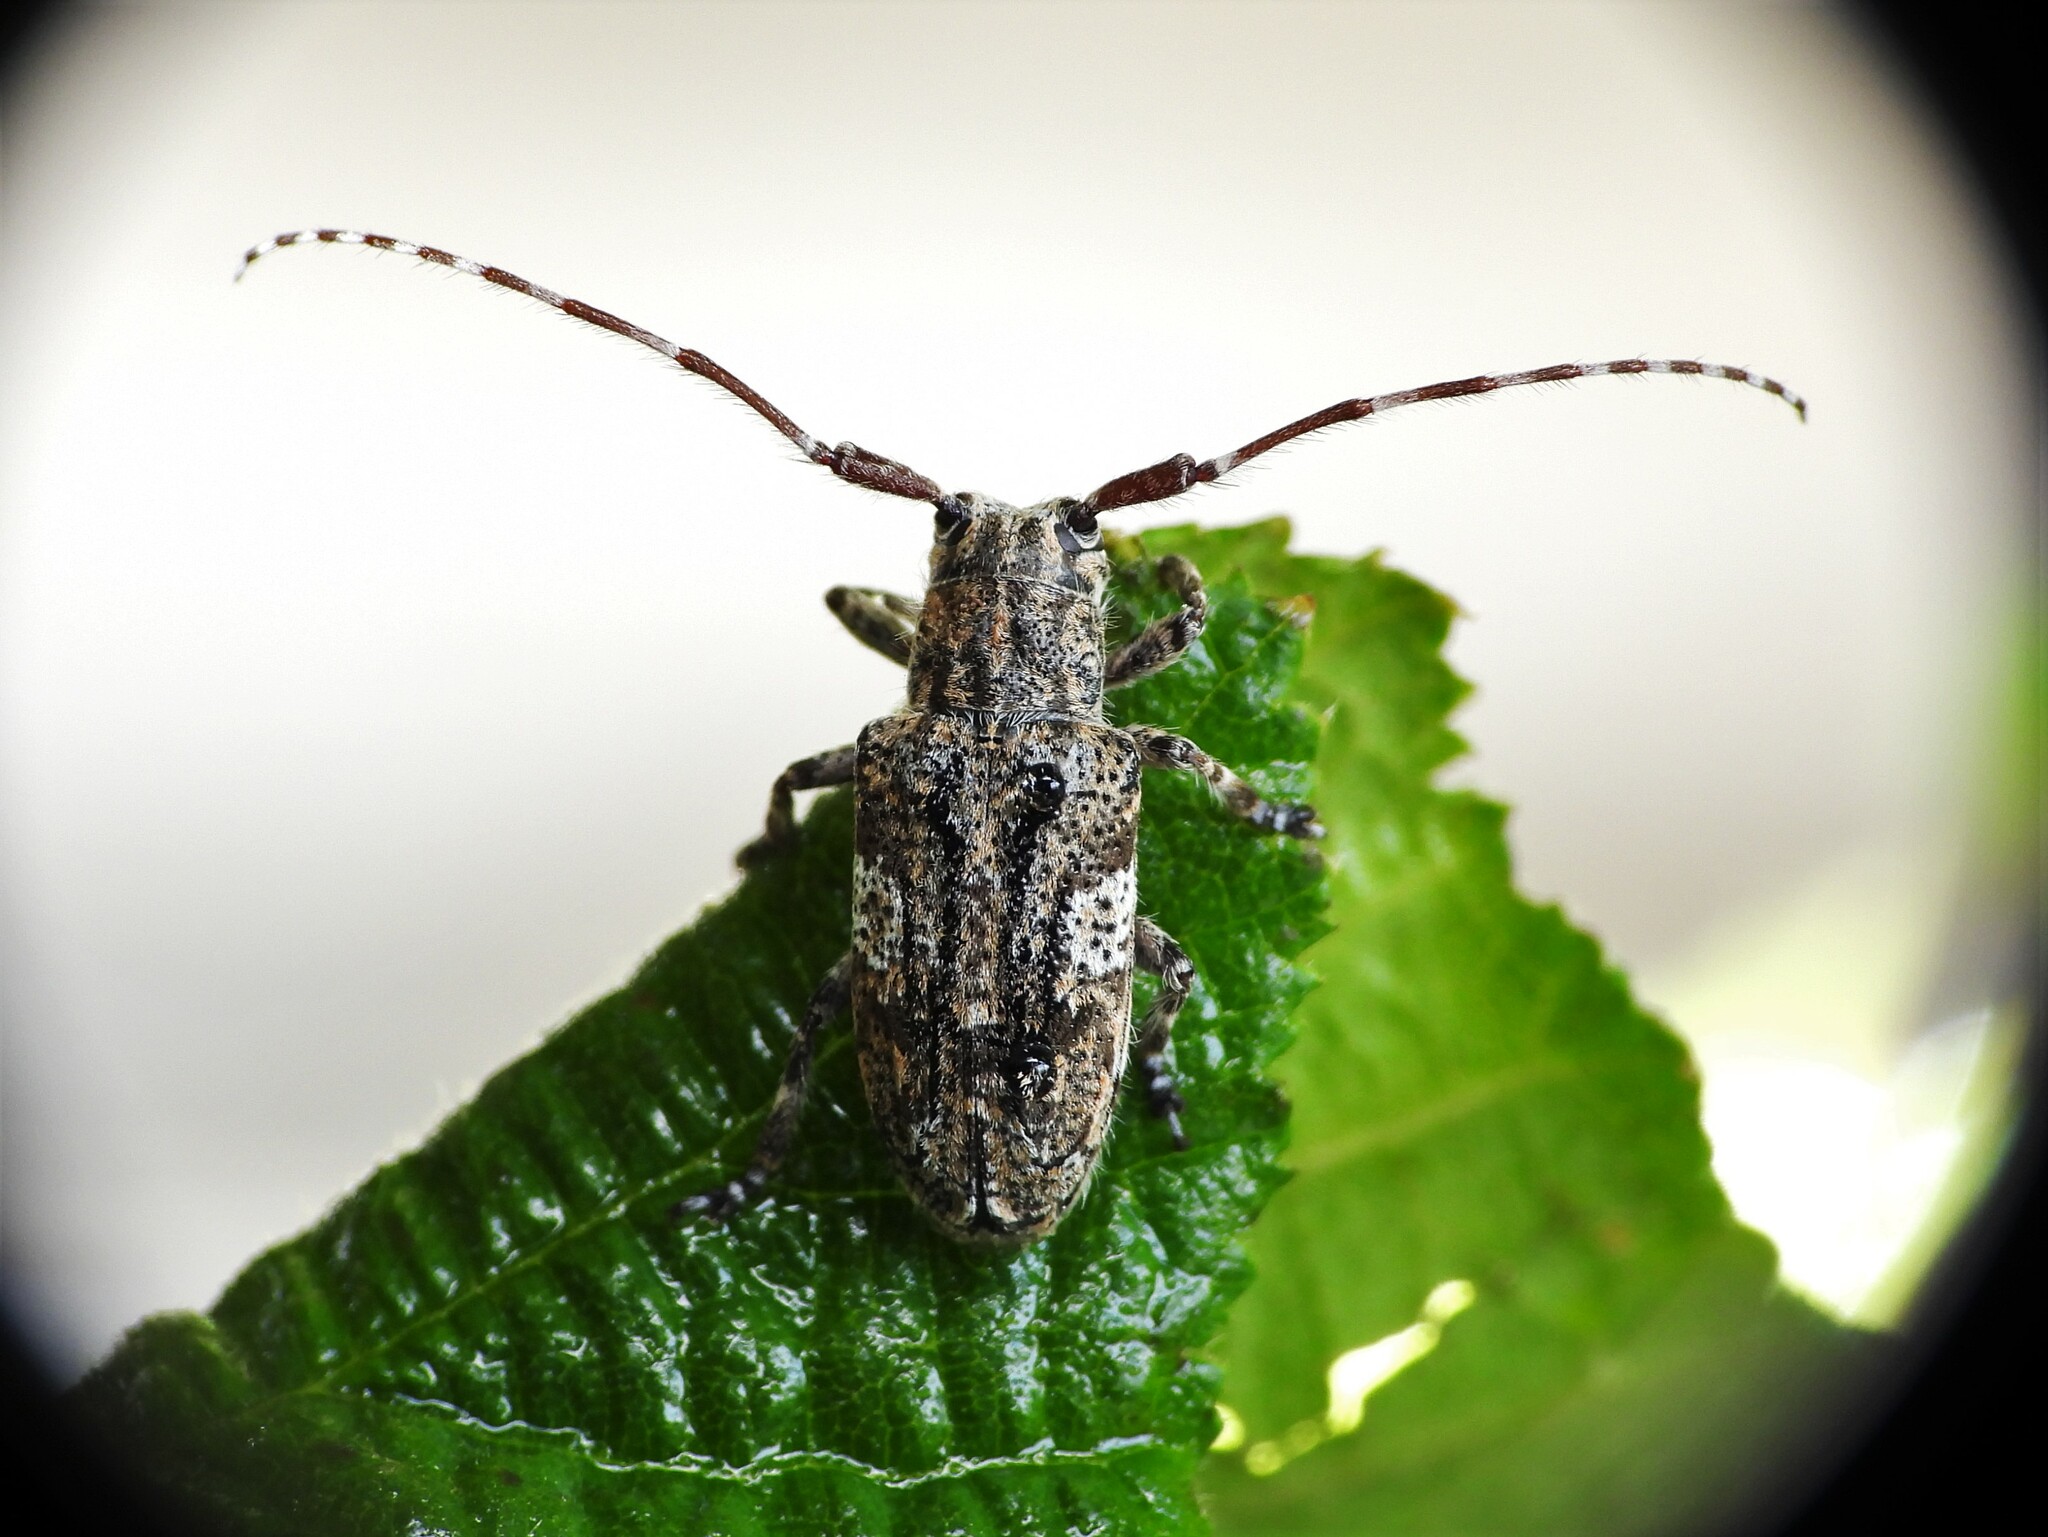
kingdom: Animalia
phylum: Arthropoda
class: Insecta
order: Coleoptera
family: Cerambycidae
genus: Mesosa
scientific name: Mesosa nebulosa
